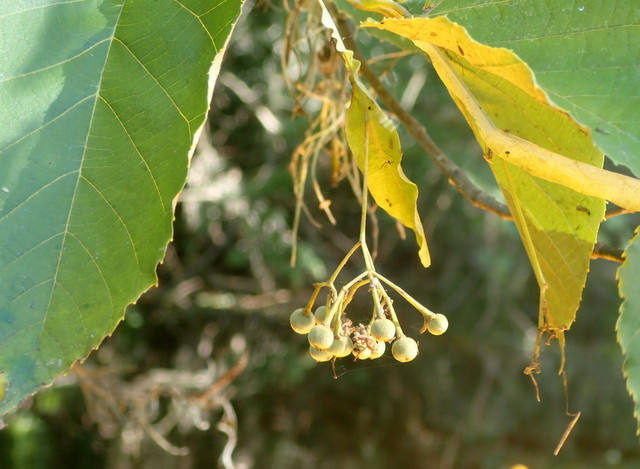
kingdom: Plantae
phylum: Tracheophyta
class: Magnoliopsida
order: Malvales
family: Malvaceae
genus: Tilia
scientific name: Tilia americana
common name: Basswood
